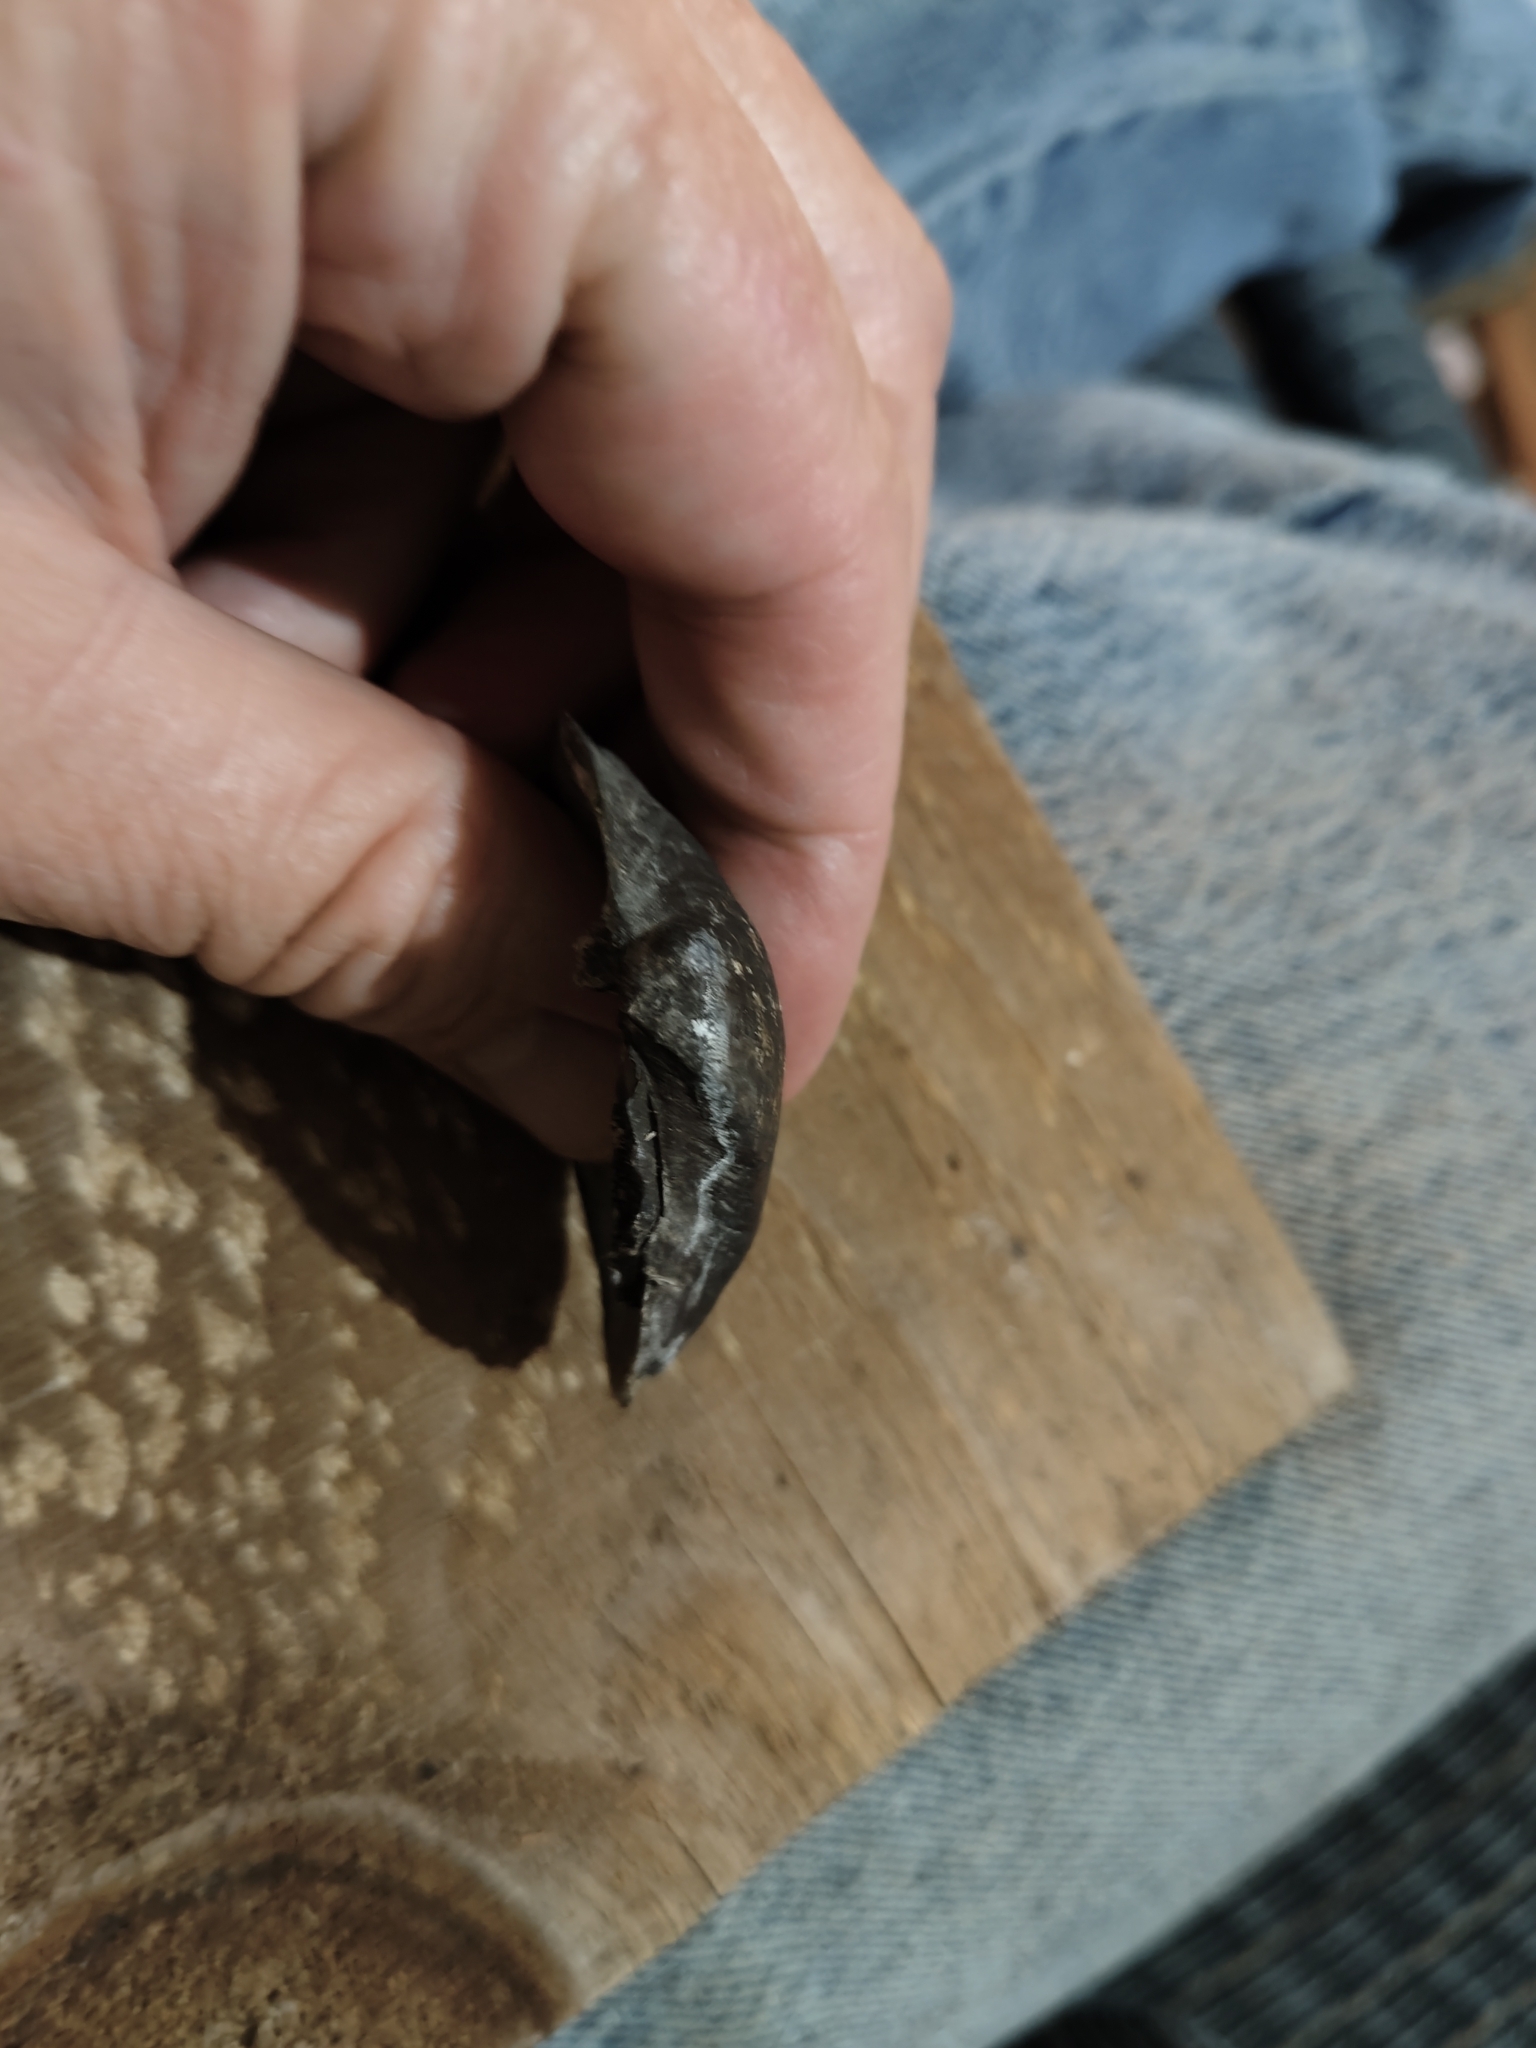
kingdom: Animalia
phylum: Mollusca
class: Bivalvia
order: Unionida
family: Unionidae
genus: Truncilla
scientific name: Truncilla truncata
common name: Deertoe
